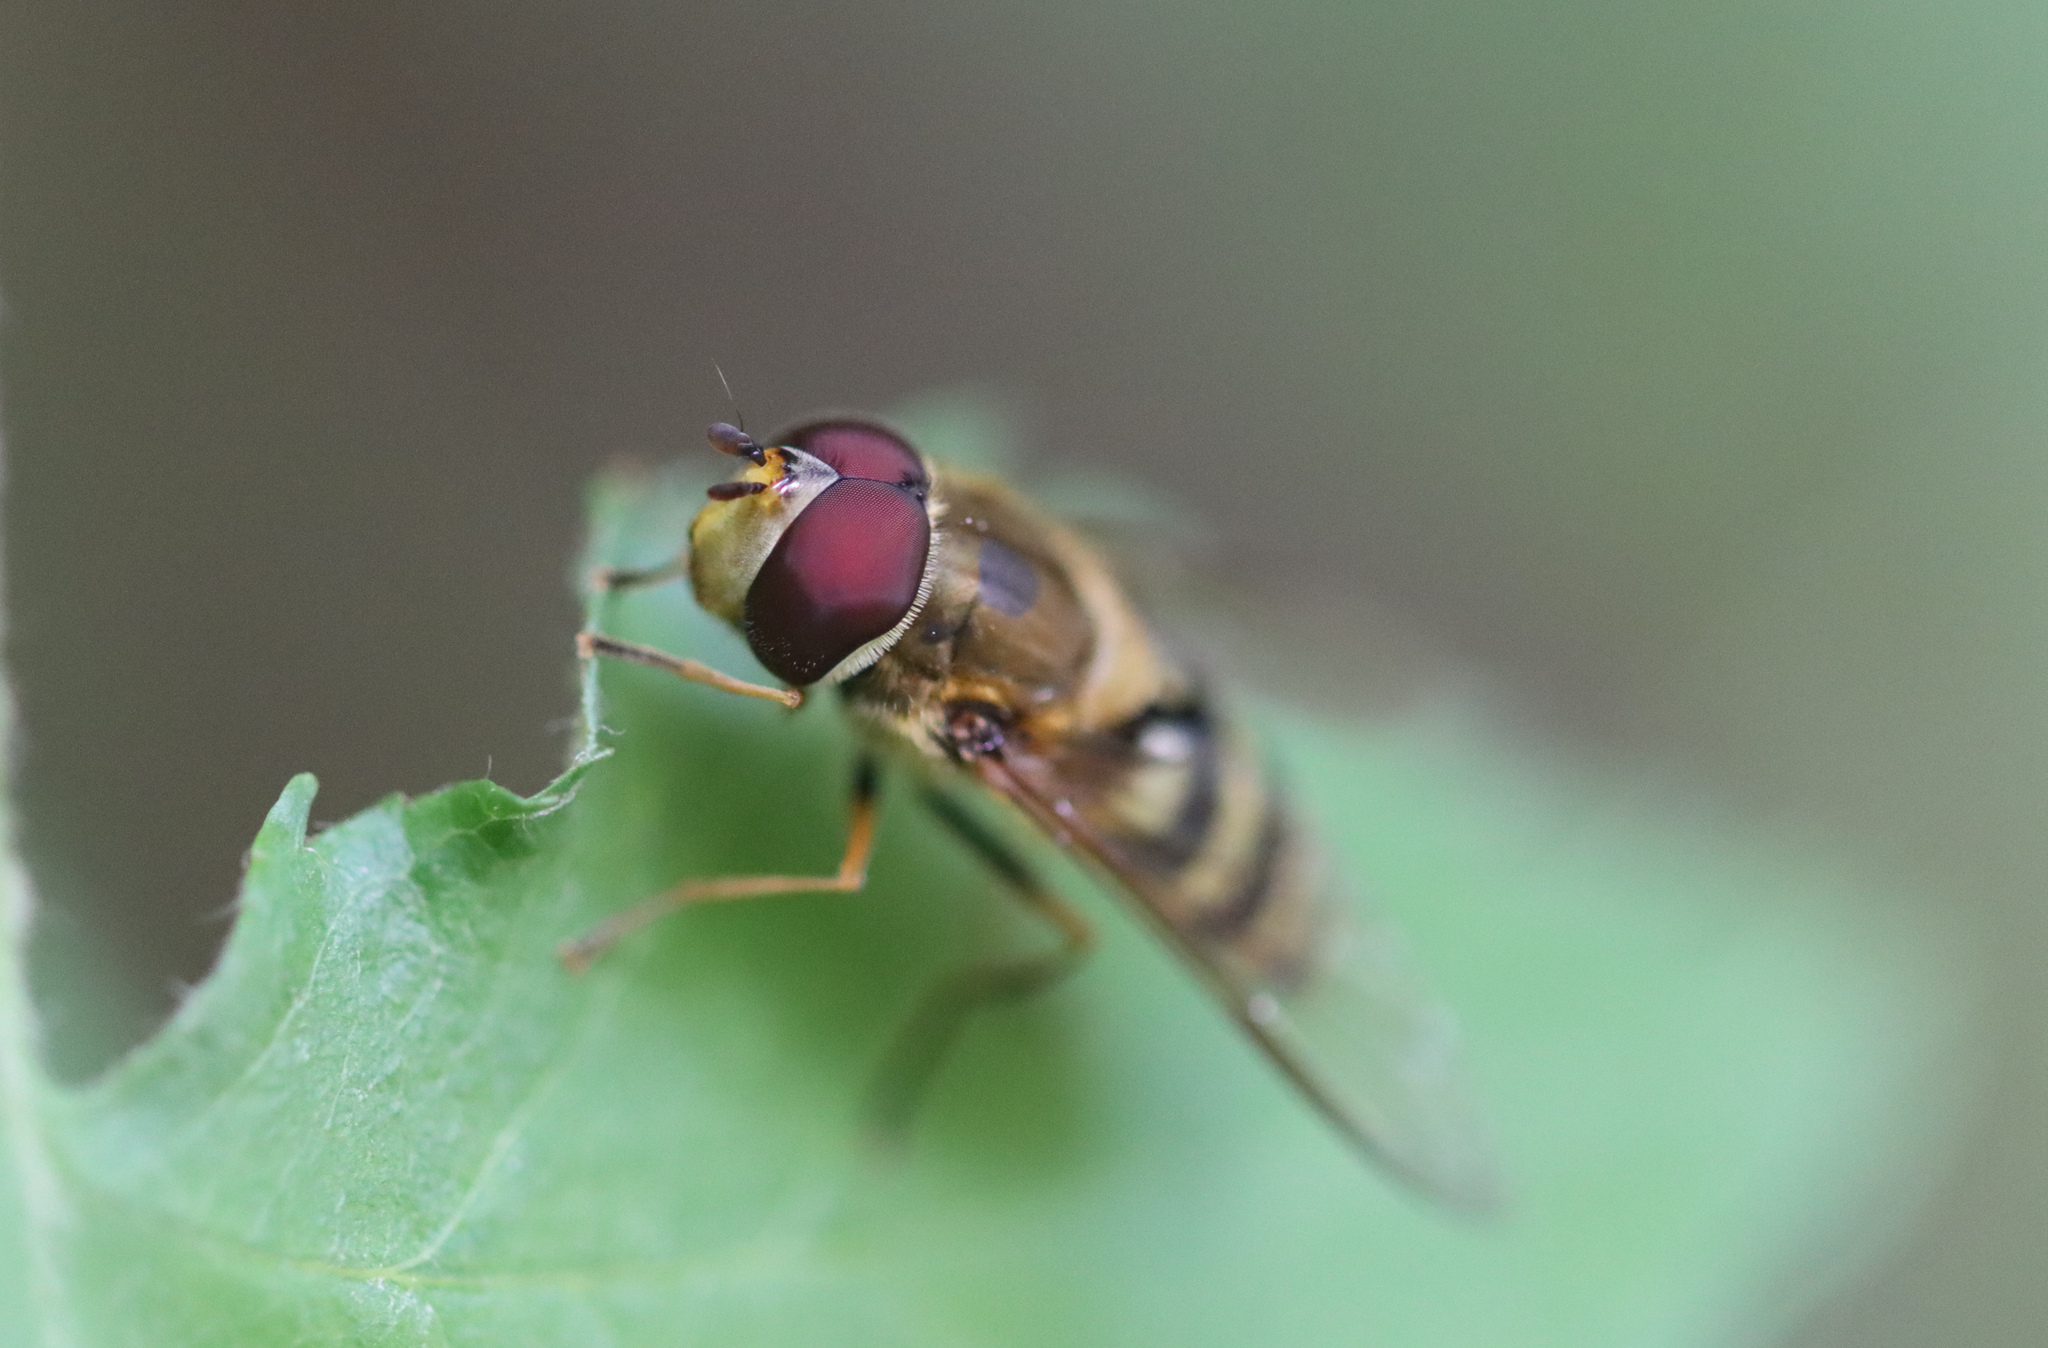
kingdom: Animalia
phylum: Arthropoda
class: Insecta
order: Diptera
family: Syrphidae
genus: Syrphus
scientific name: Syrphus
